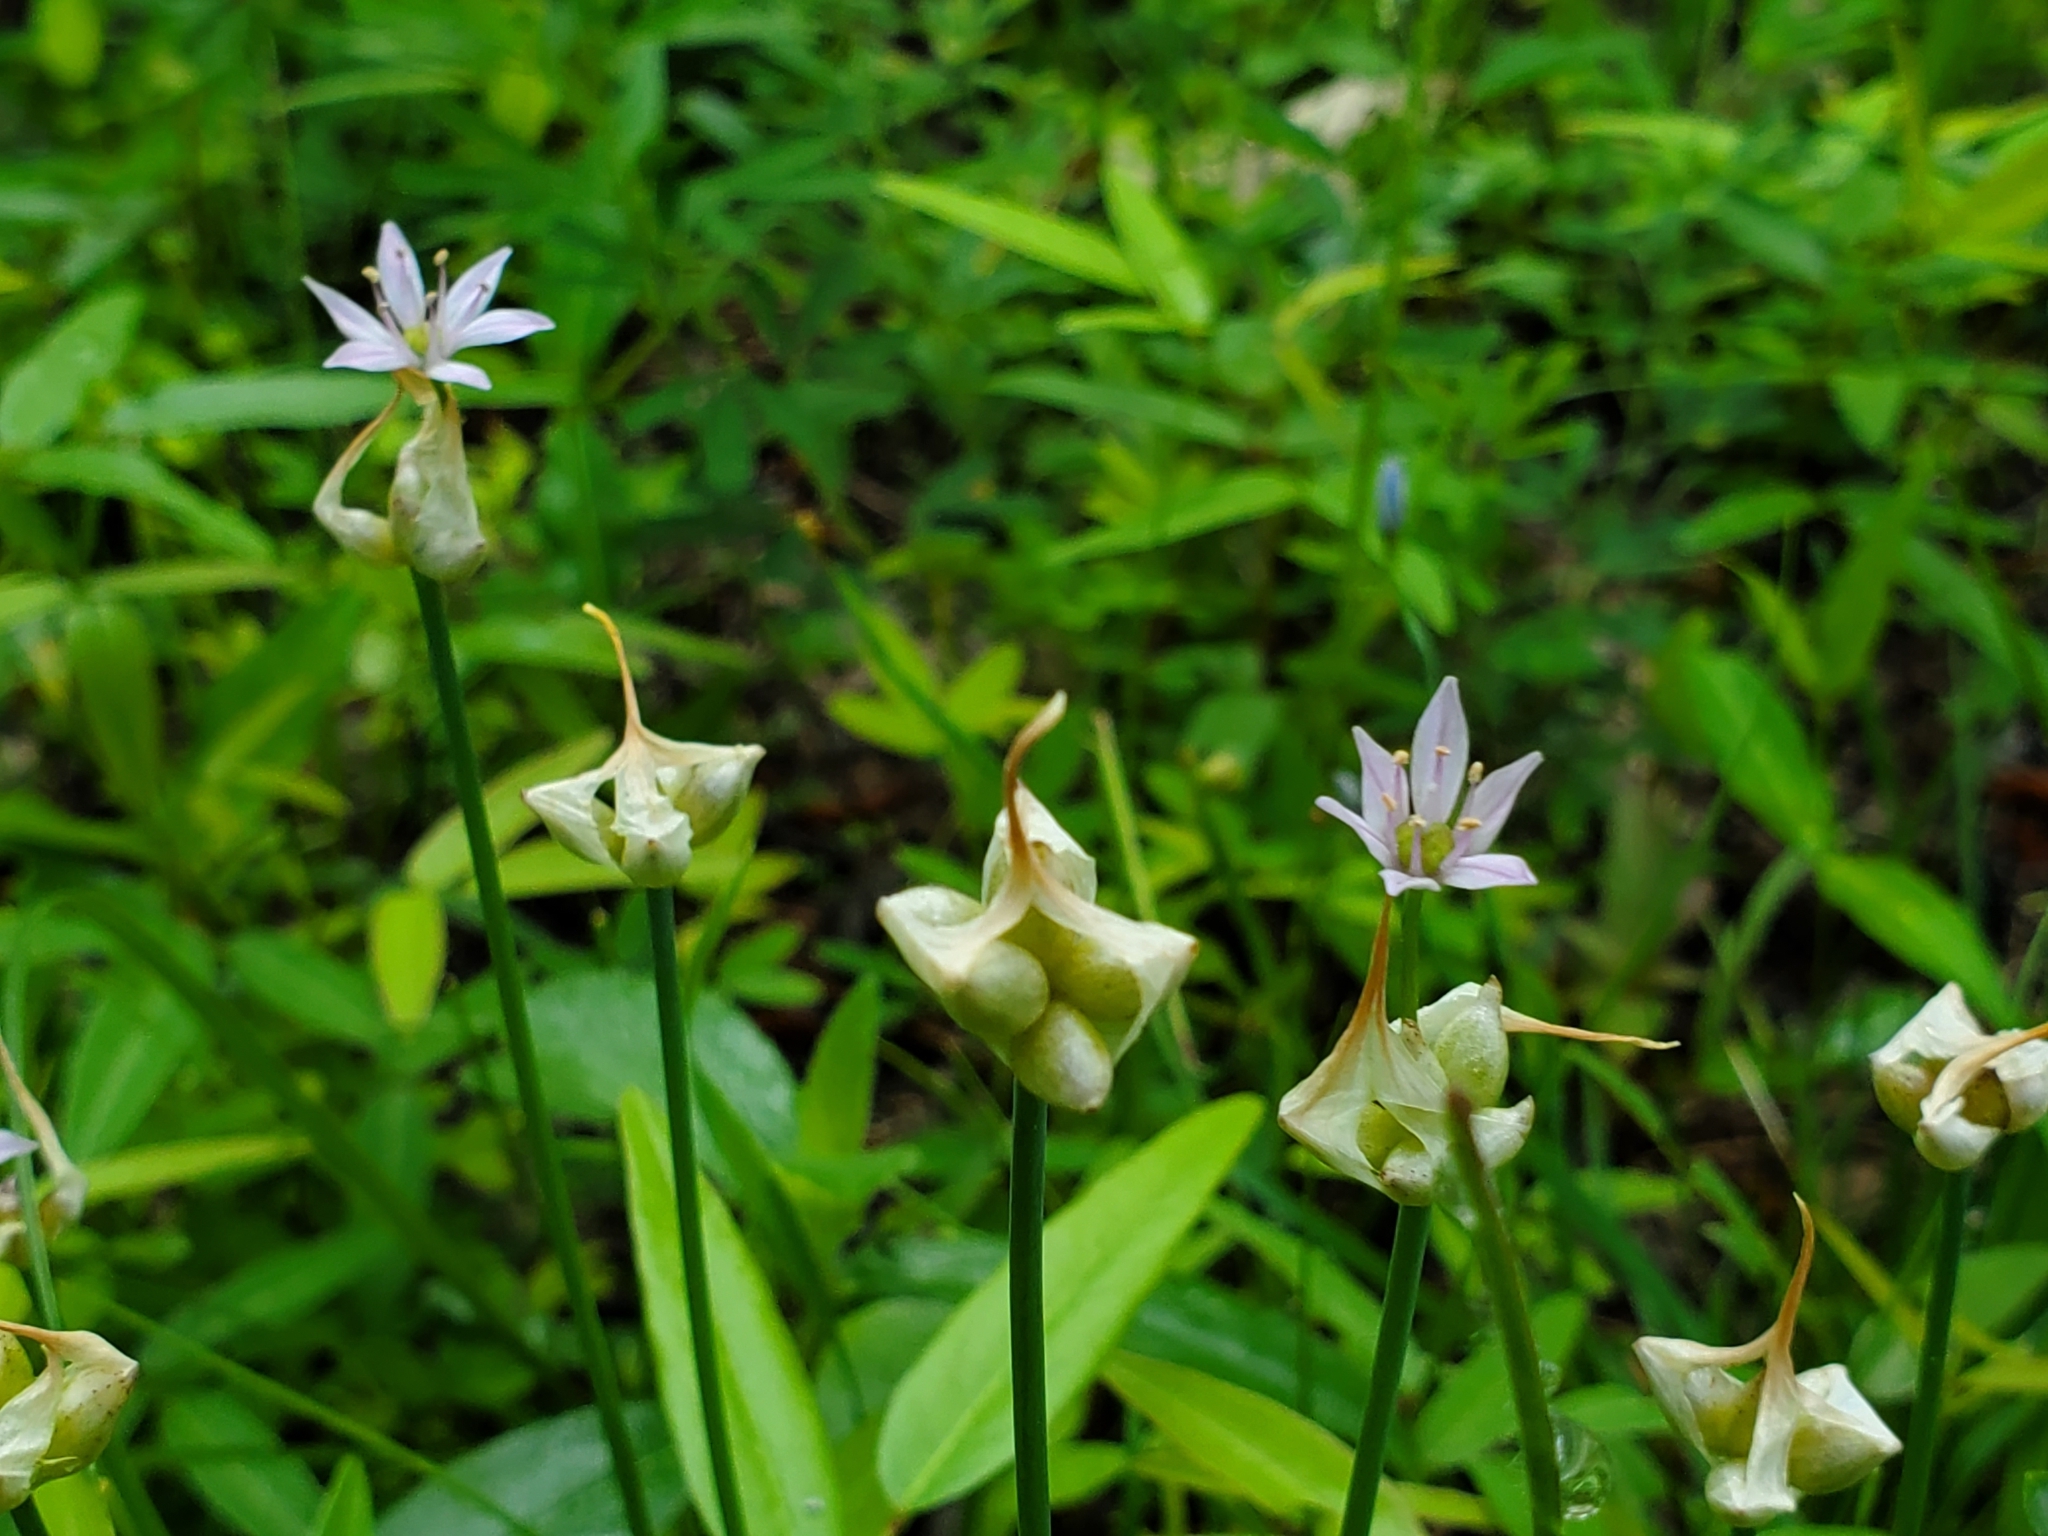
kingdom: Plantae
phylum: Tracheophyta
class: Liliopsida
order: Asparagales
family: Amaryllidaceae
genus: Allium
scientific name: Allium canadense
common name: Meadow garlic
